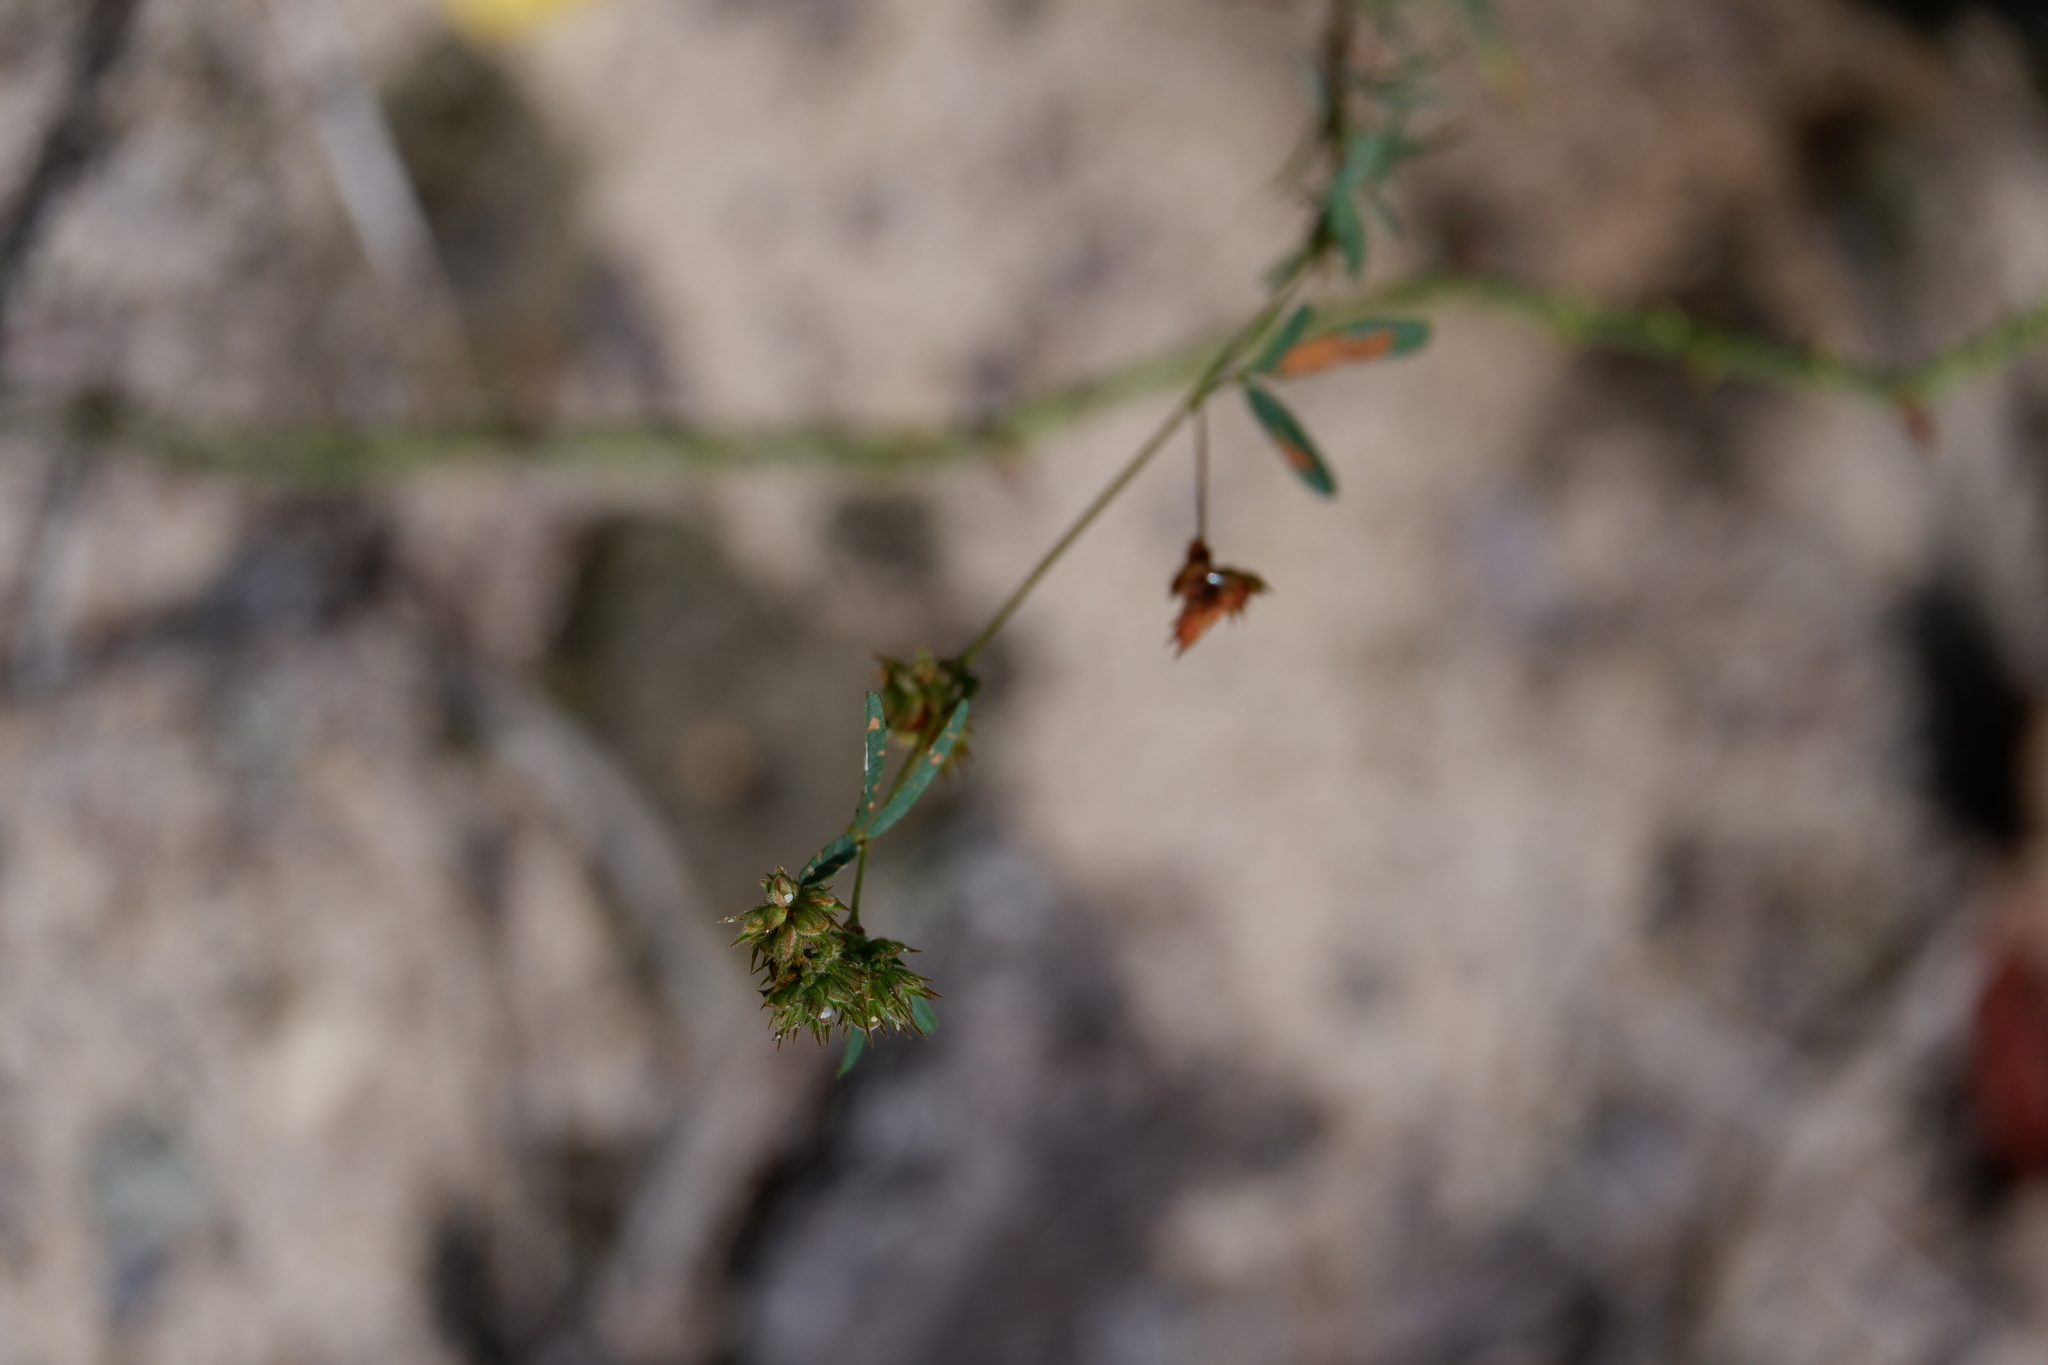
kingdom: Plantae
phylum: Tracheophyta
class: Magnoliopsida
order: Fabales
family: Fabaceae
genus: Lespedeza
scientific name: Lespedeza angustifolia
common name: Narrow-leaf bush-clover
